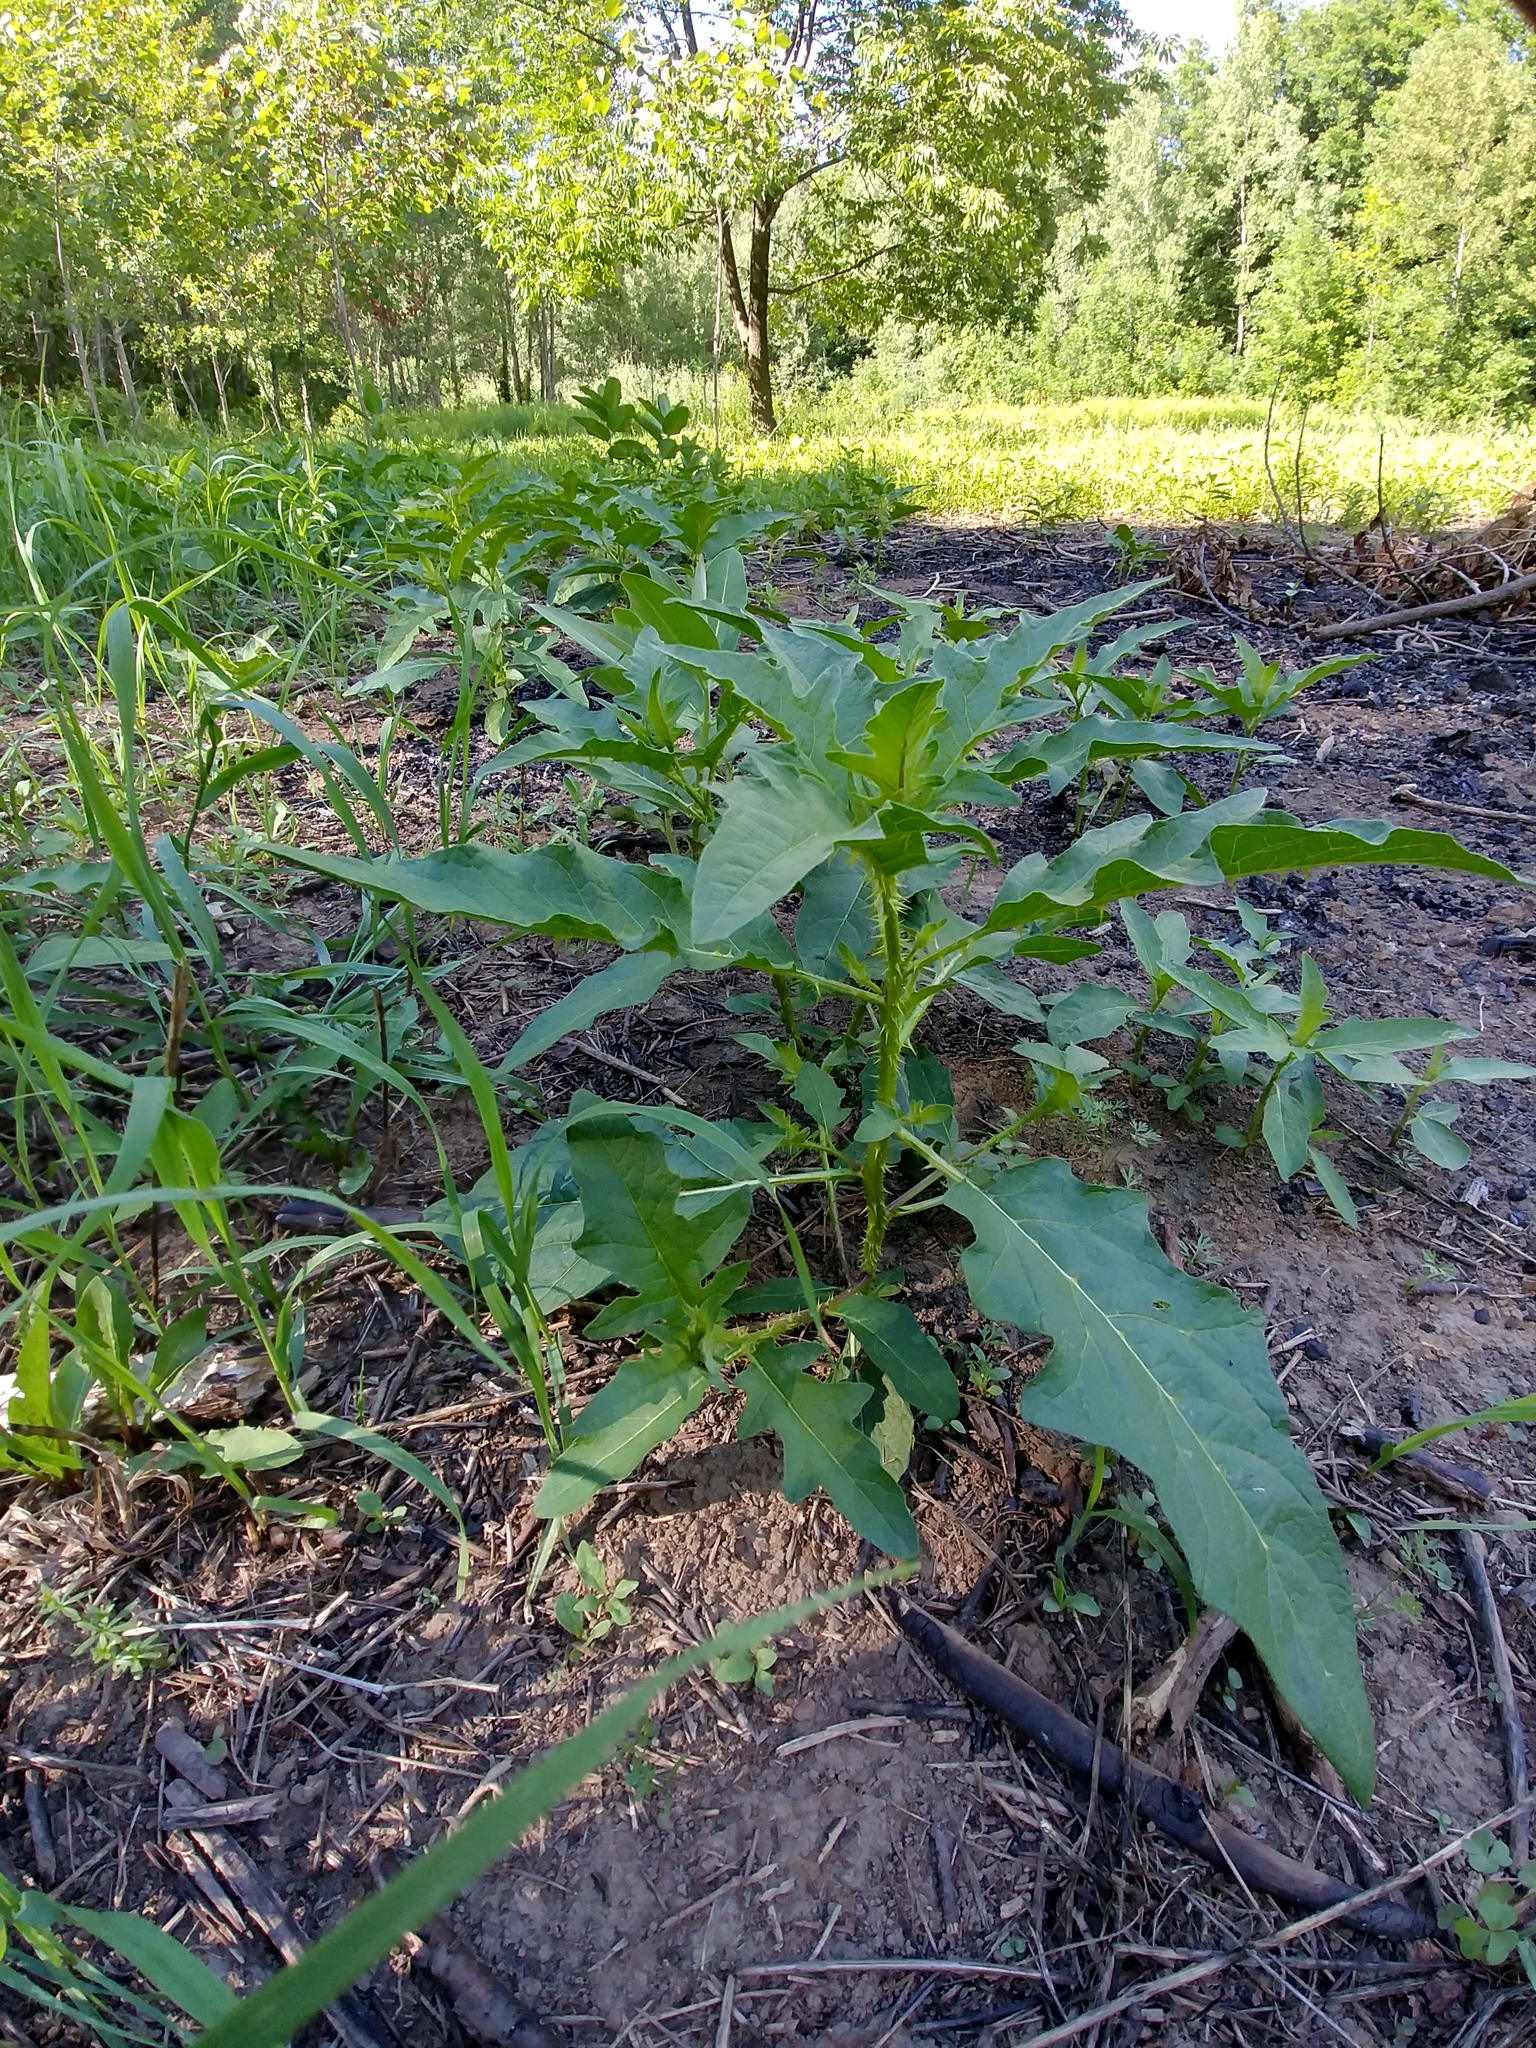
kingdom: Plantae
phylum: Tracheophyta
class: Magnoliopsida
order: Solanales
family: Solanaceae
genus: Solanum
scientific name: Solanum carolinense
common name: Horse-nettle
